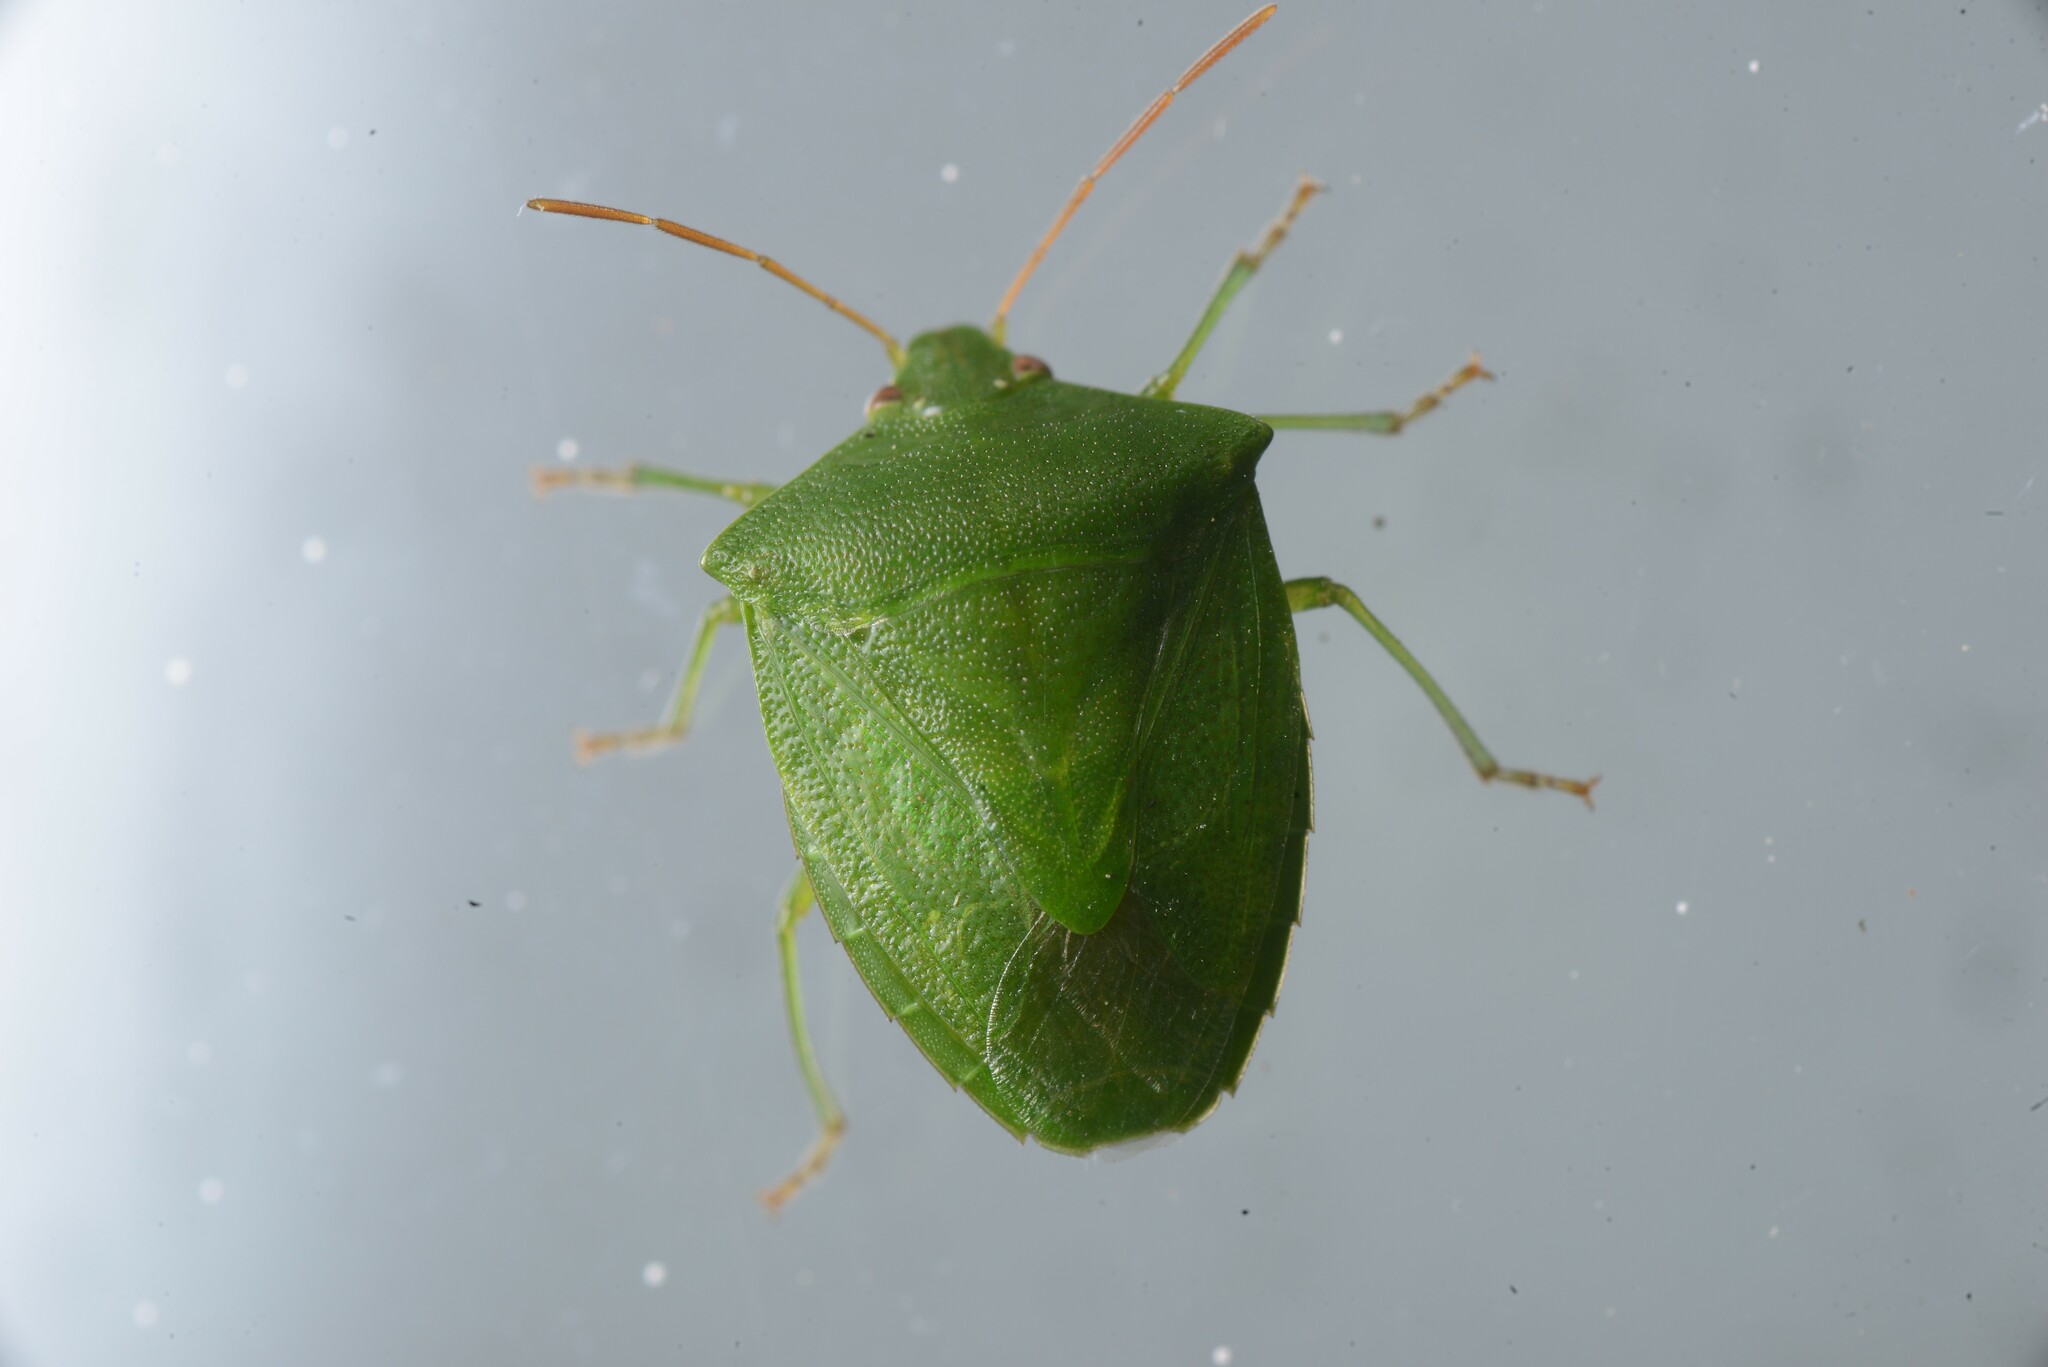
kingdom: Animalia
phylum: Arthropoda
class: Insecta
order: Hemiptera
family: Pentatomidae
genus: Cuspicona
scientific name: Cuspicona simplex
